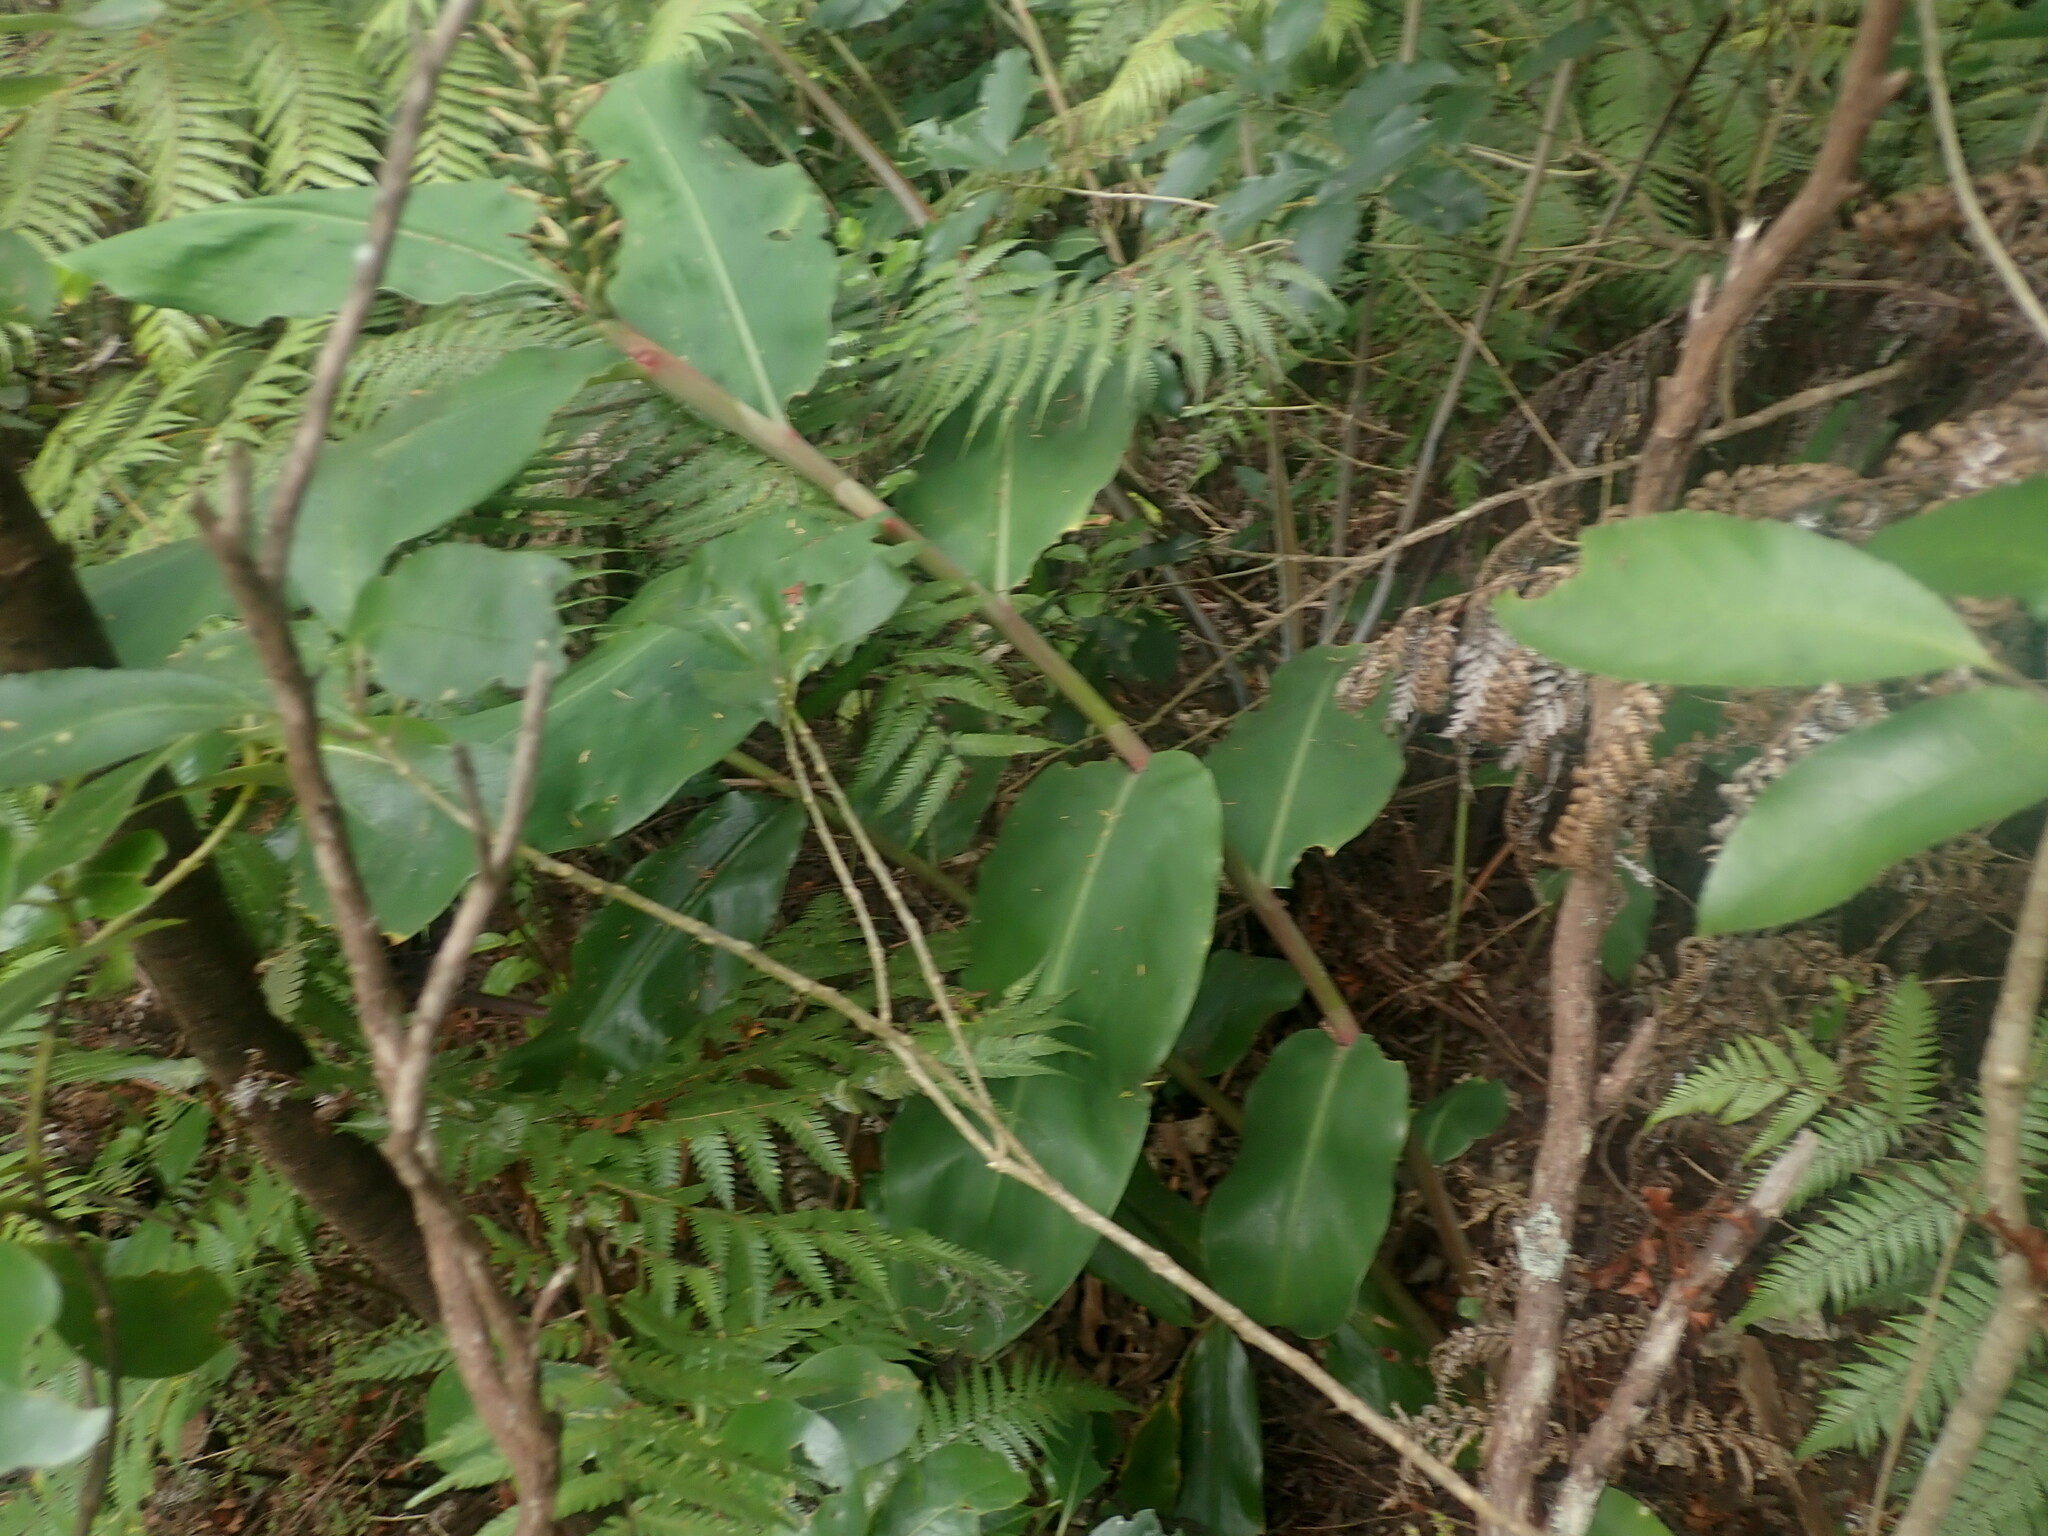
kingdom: Plantae
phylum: Tracheophyta
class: Liliopsida
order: Zingiberales
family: Zingiberaceae
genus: Hedychium
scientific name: Hedychium gardnerianum
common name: Himalayan ginger
